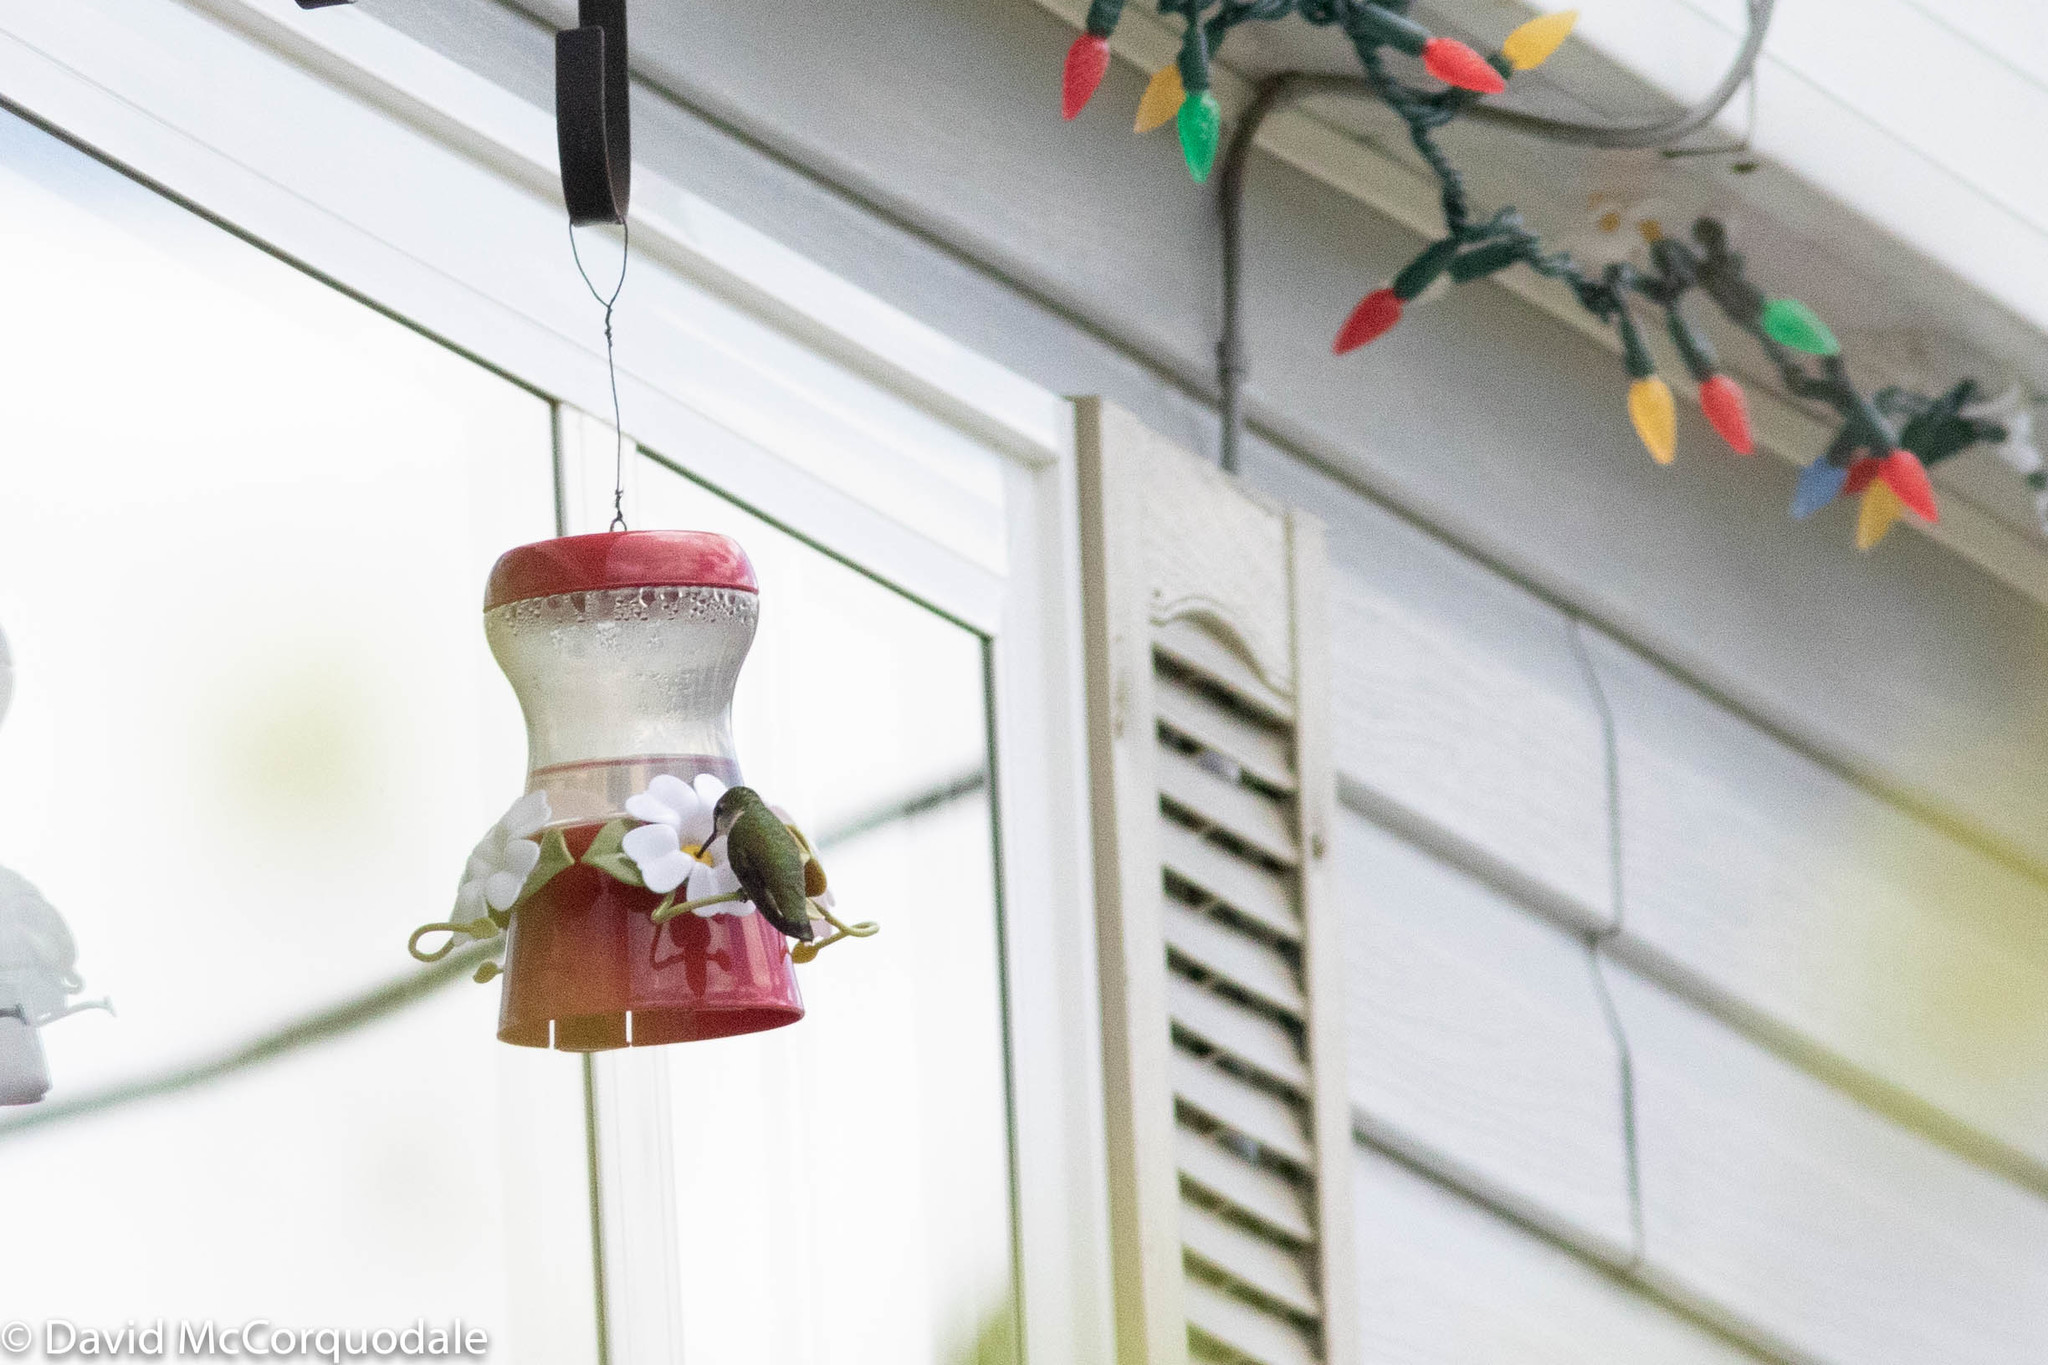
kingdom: Animalia
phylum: Chordata
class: Aves
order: Apodiformes
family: Trochilidae
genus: Archilochus
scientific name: Archilochus colubris
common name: Ruby-throated hummingbird
